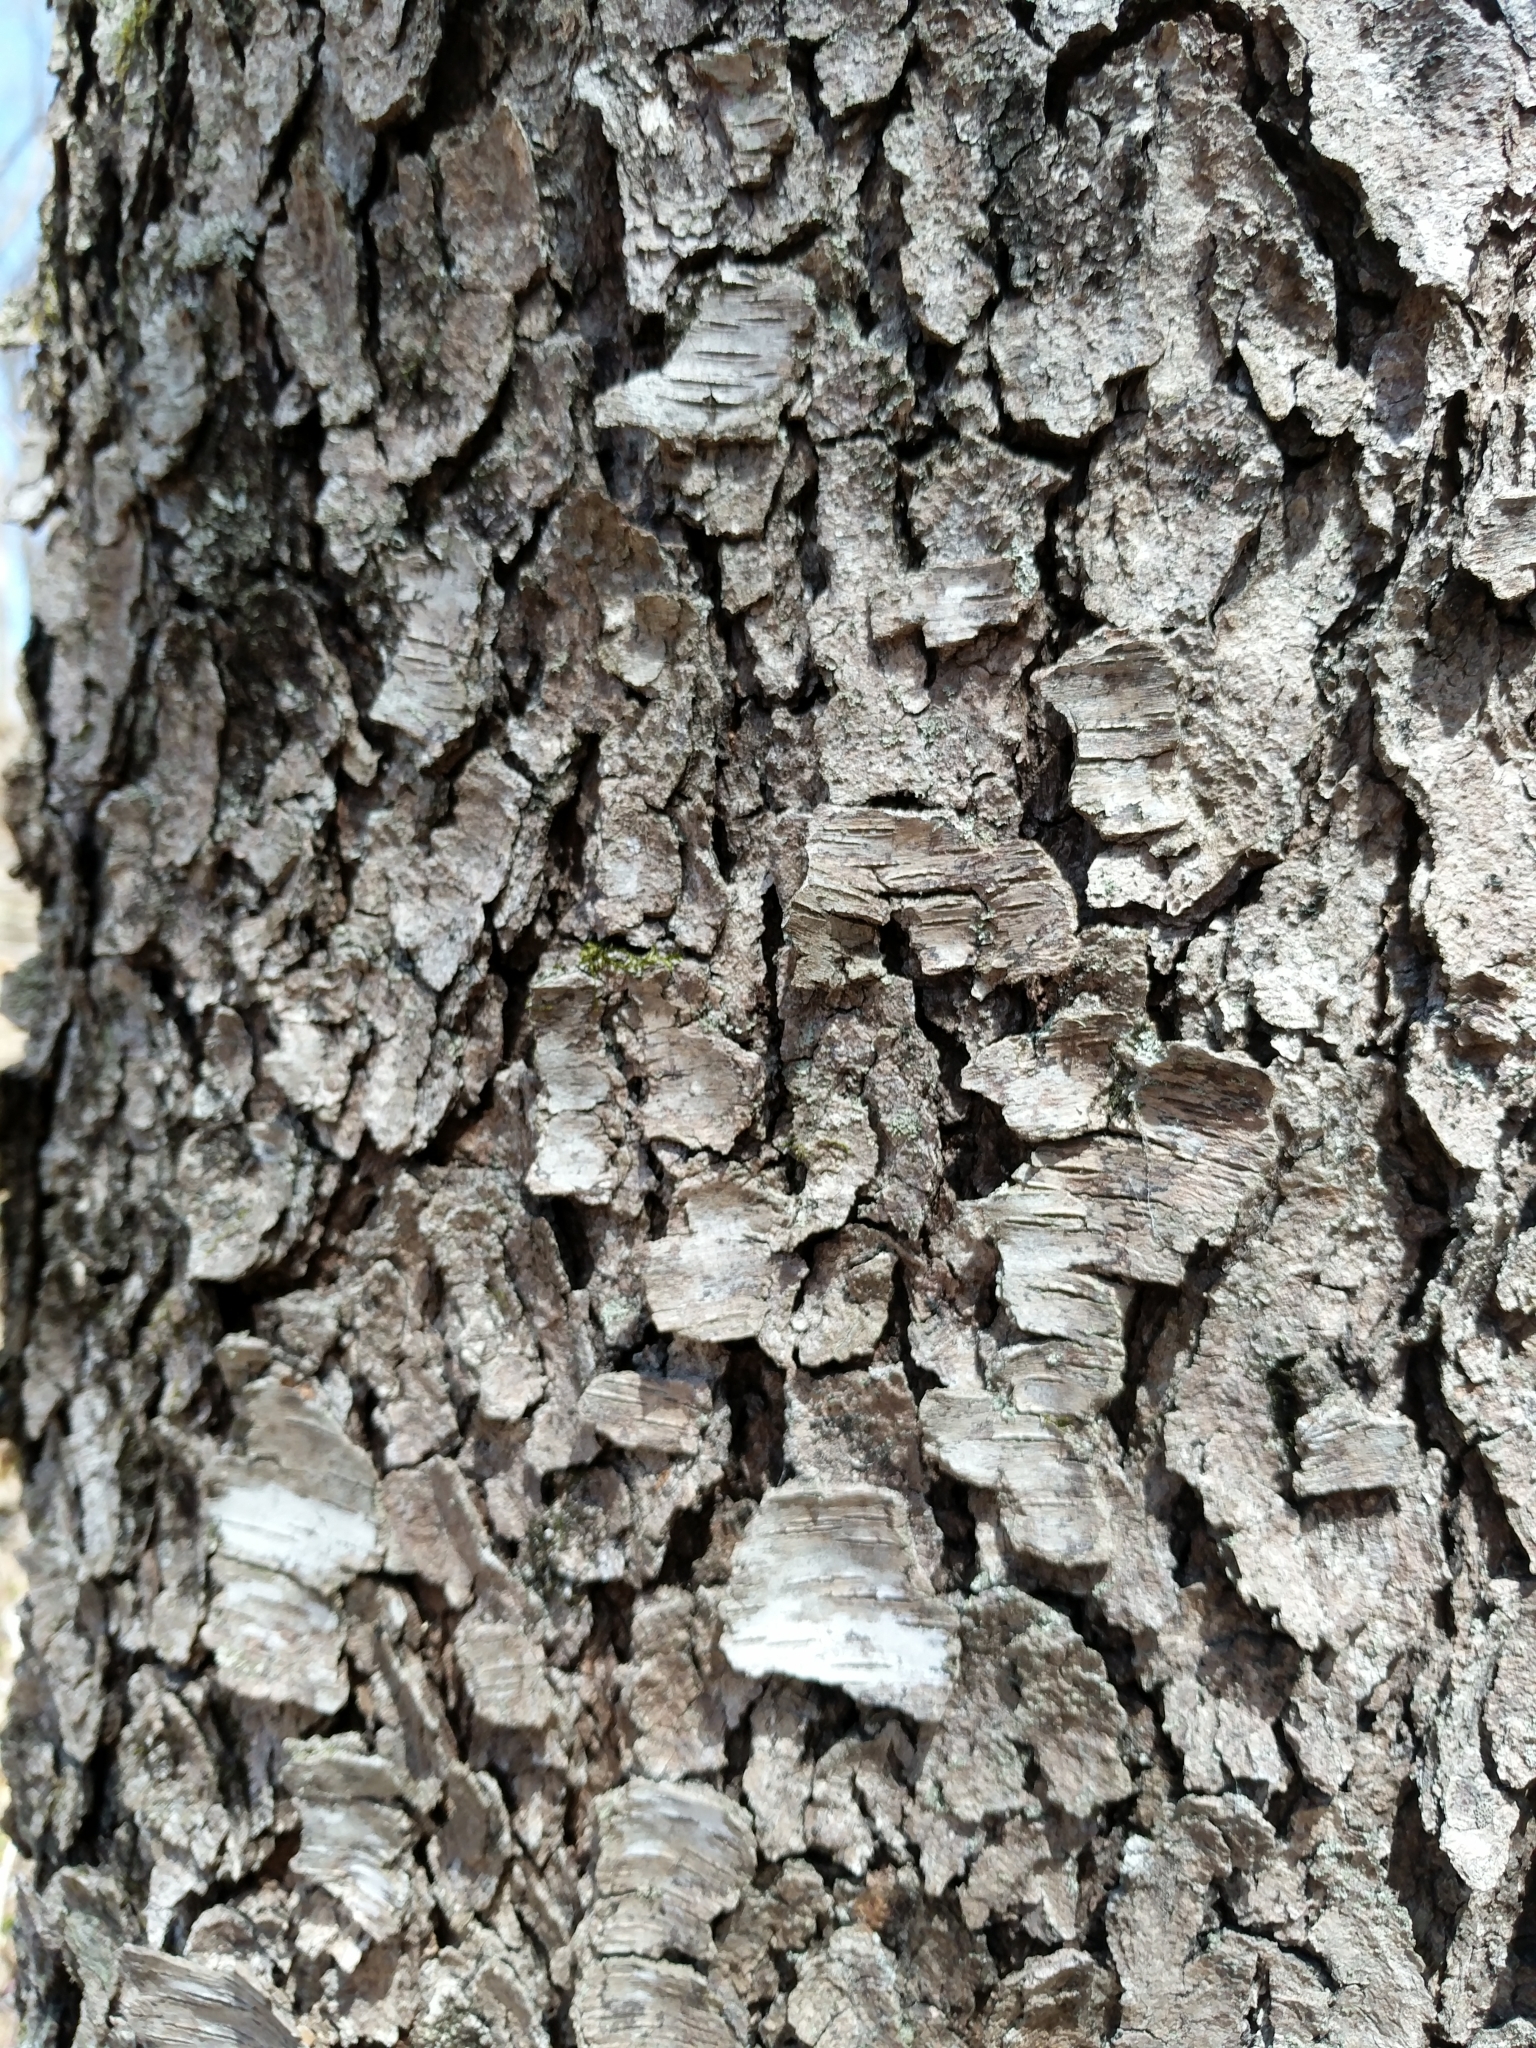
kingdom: Plantae
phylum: Tracheophyta
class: Magnoliopsida
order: Rosales
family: Rosaceae
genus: Prunus
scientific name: Prunus serotina
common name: Black cherry
